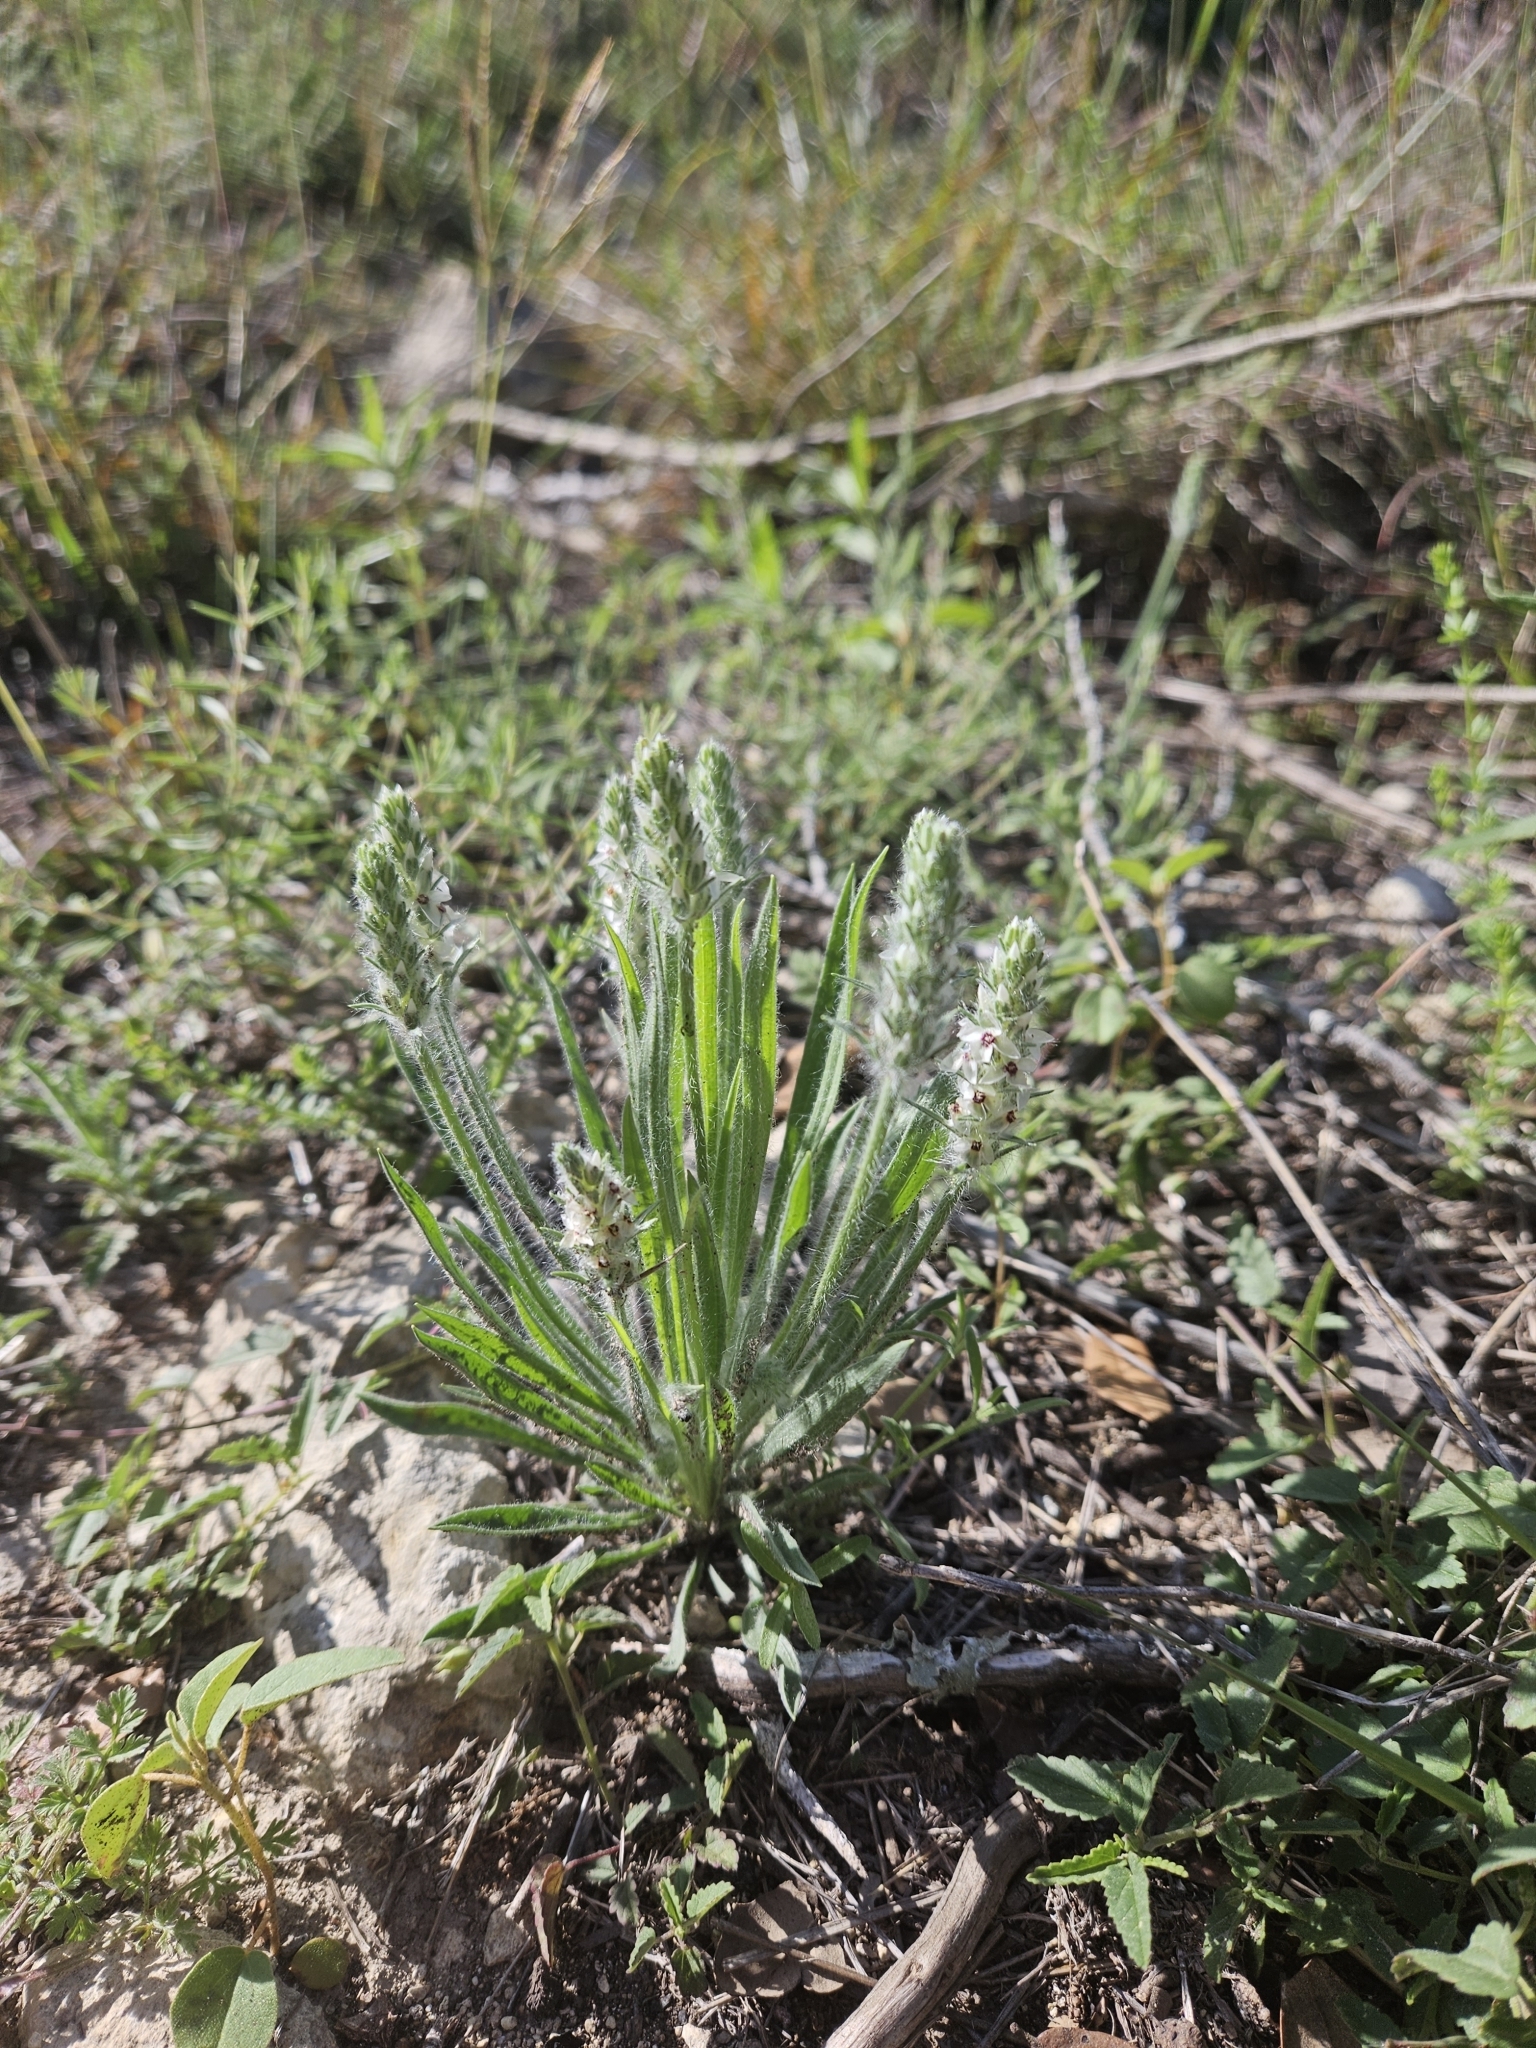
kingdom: Plantae
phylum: Tracheophyta
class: Magnoliopsida
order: Lamiales
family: Plantaginaceae
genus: Plantago
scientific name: Plantago helleri
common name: Heller's plantain
